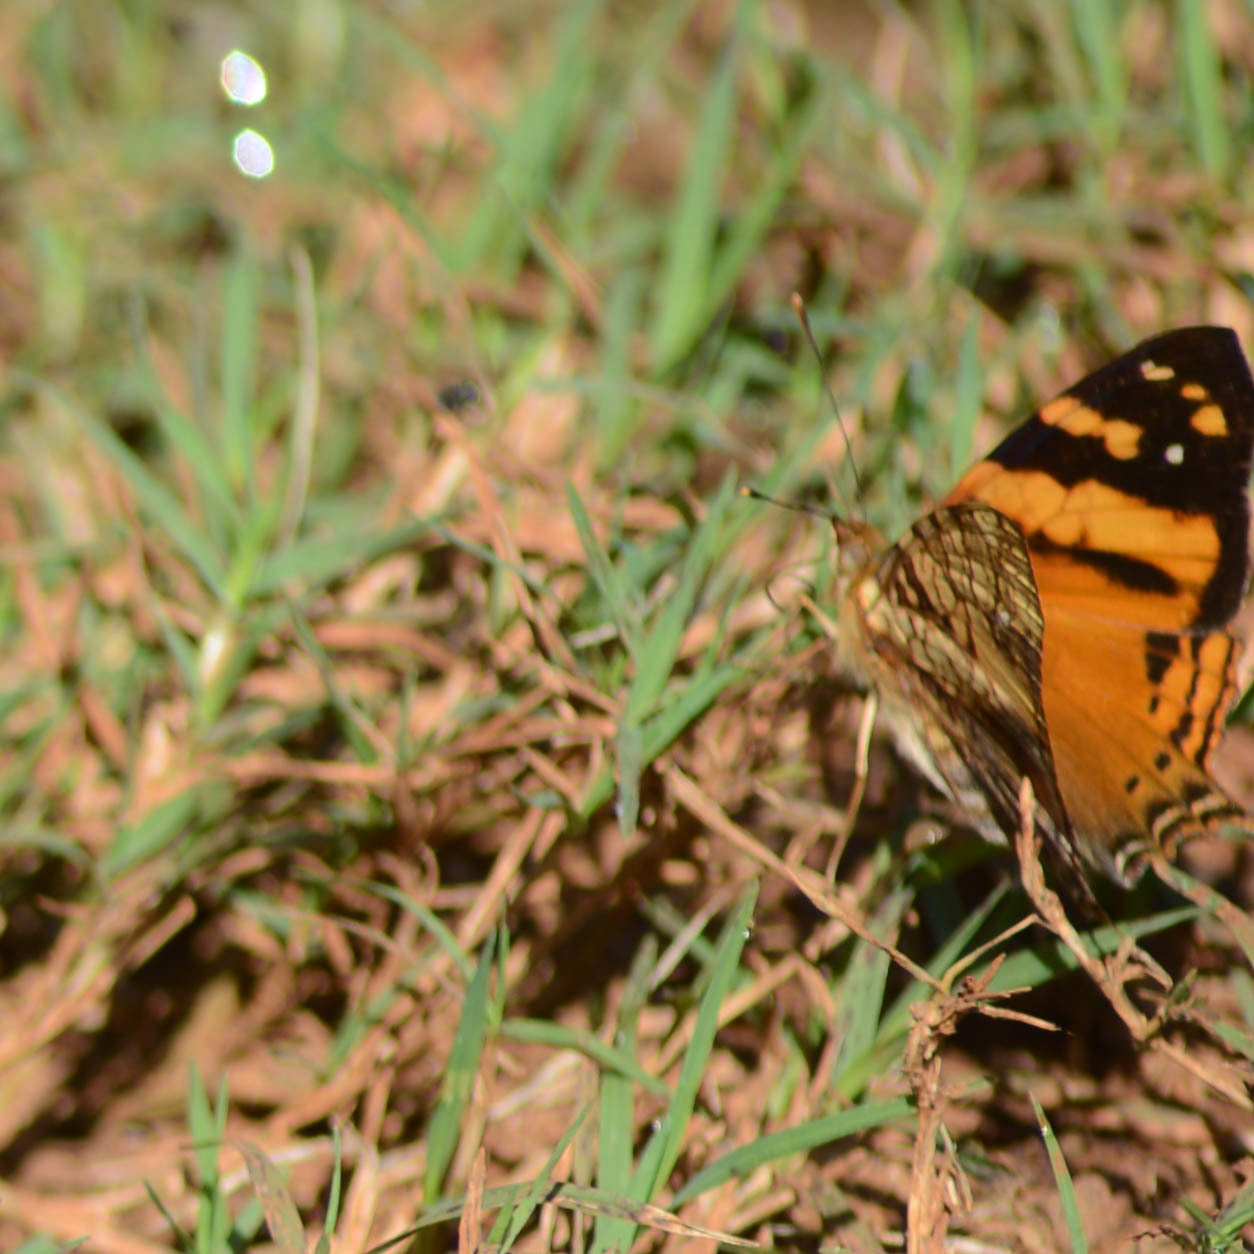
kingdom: Animalia
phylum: Arthropoda
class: Insecta
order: Lepidoptera
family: Nymphalidae
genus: Hypanartia
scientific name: Hypanartia lethe
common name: Orange mapwing
